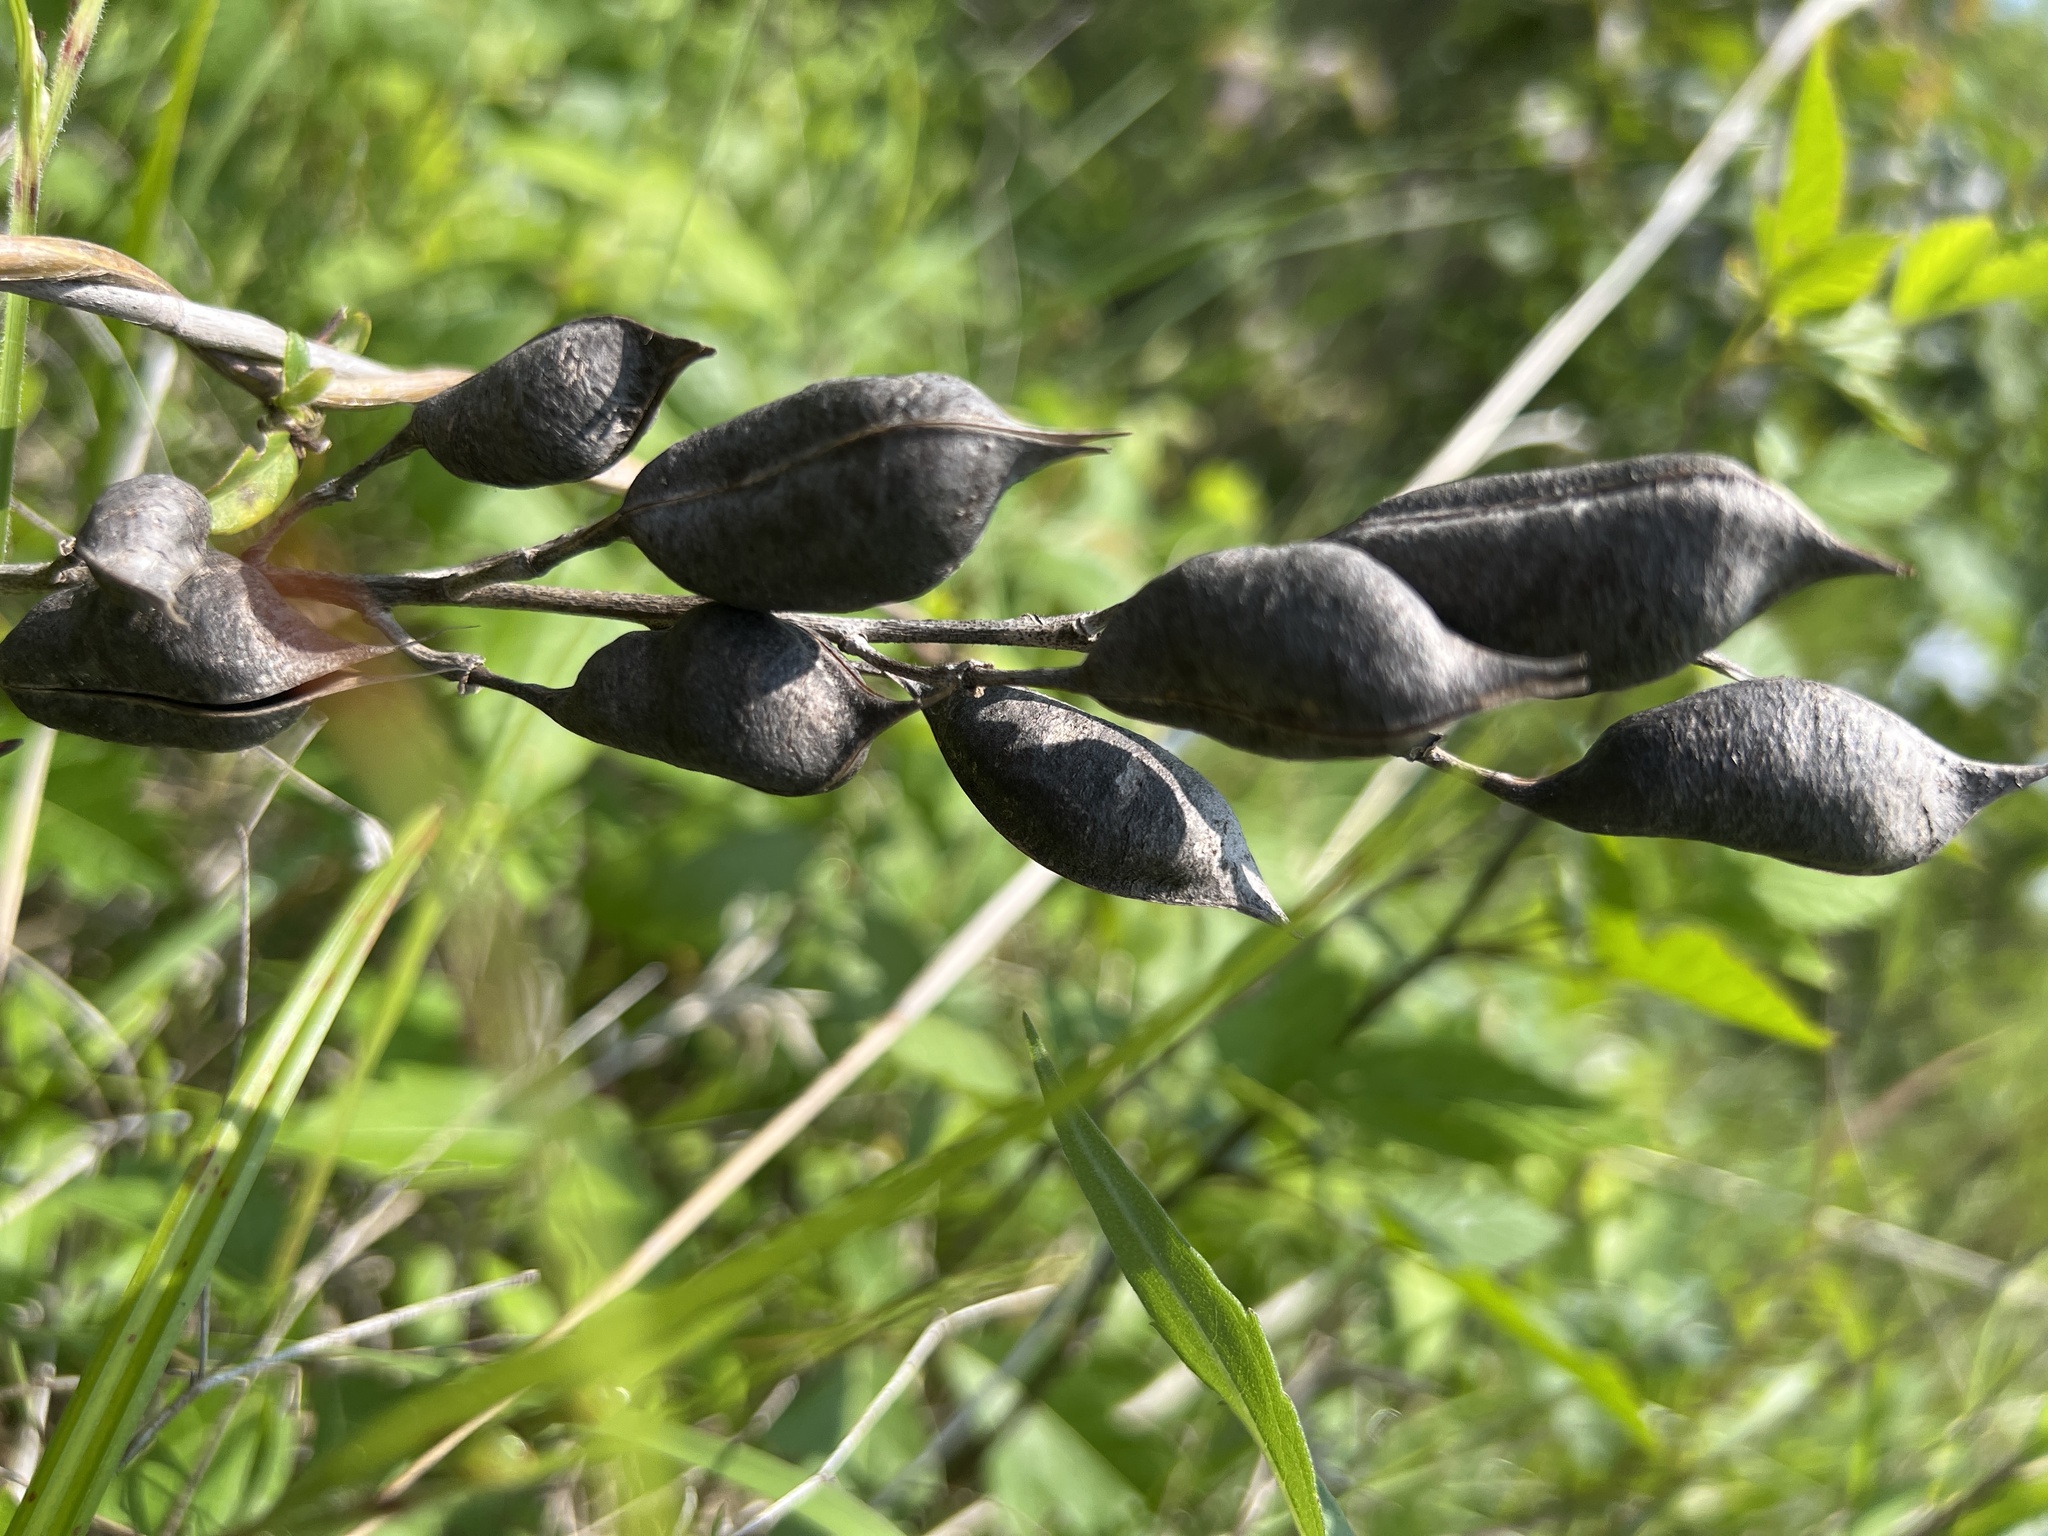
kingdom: Plantae
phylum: Tracheophyta
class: Magnoliopsida
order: Fabales
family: Fabaceae
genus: Baptisia
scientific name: Baptisia aberrans
